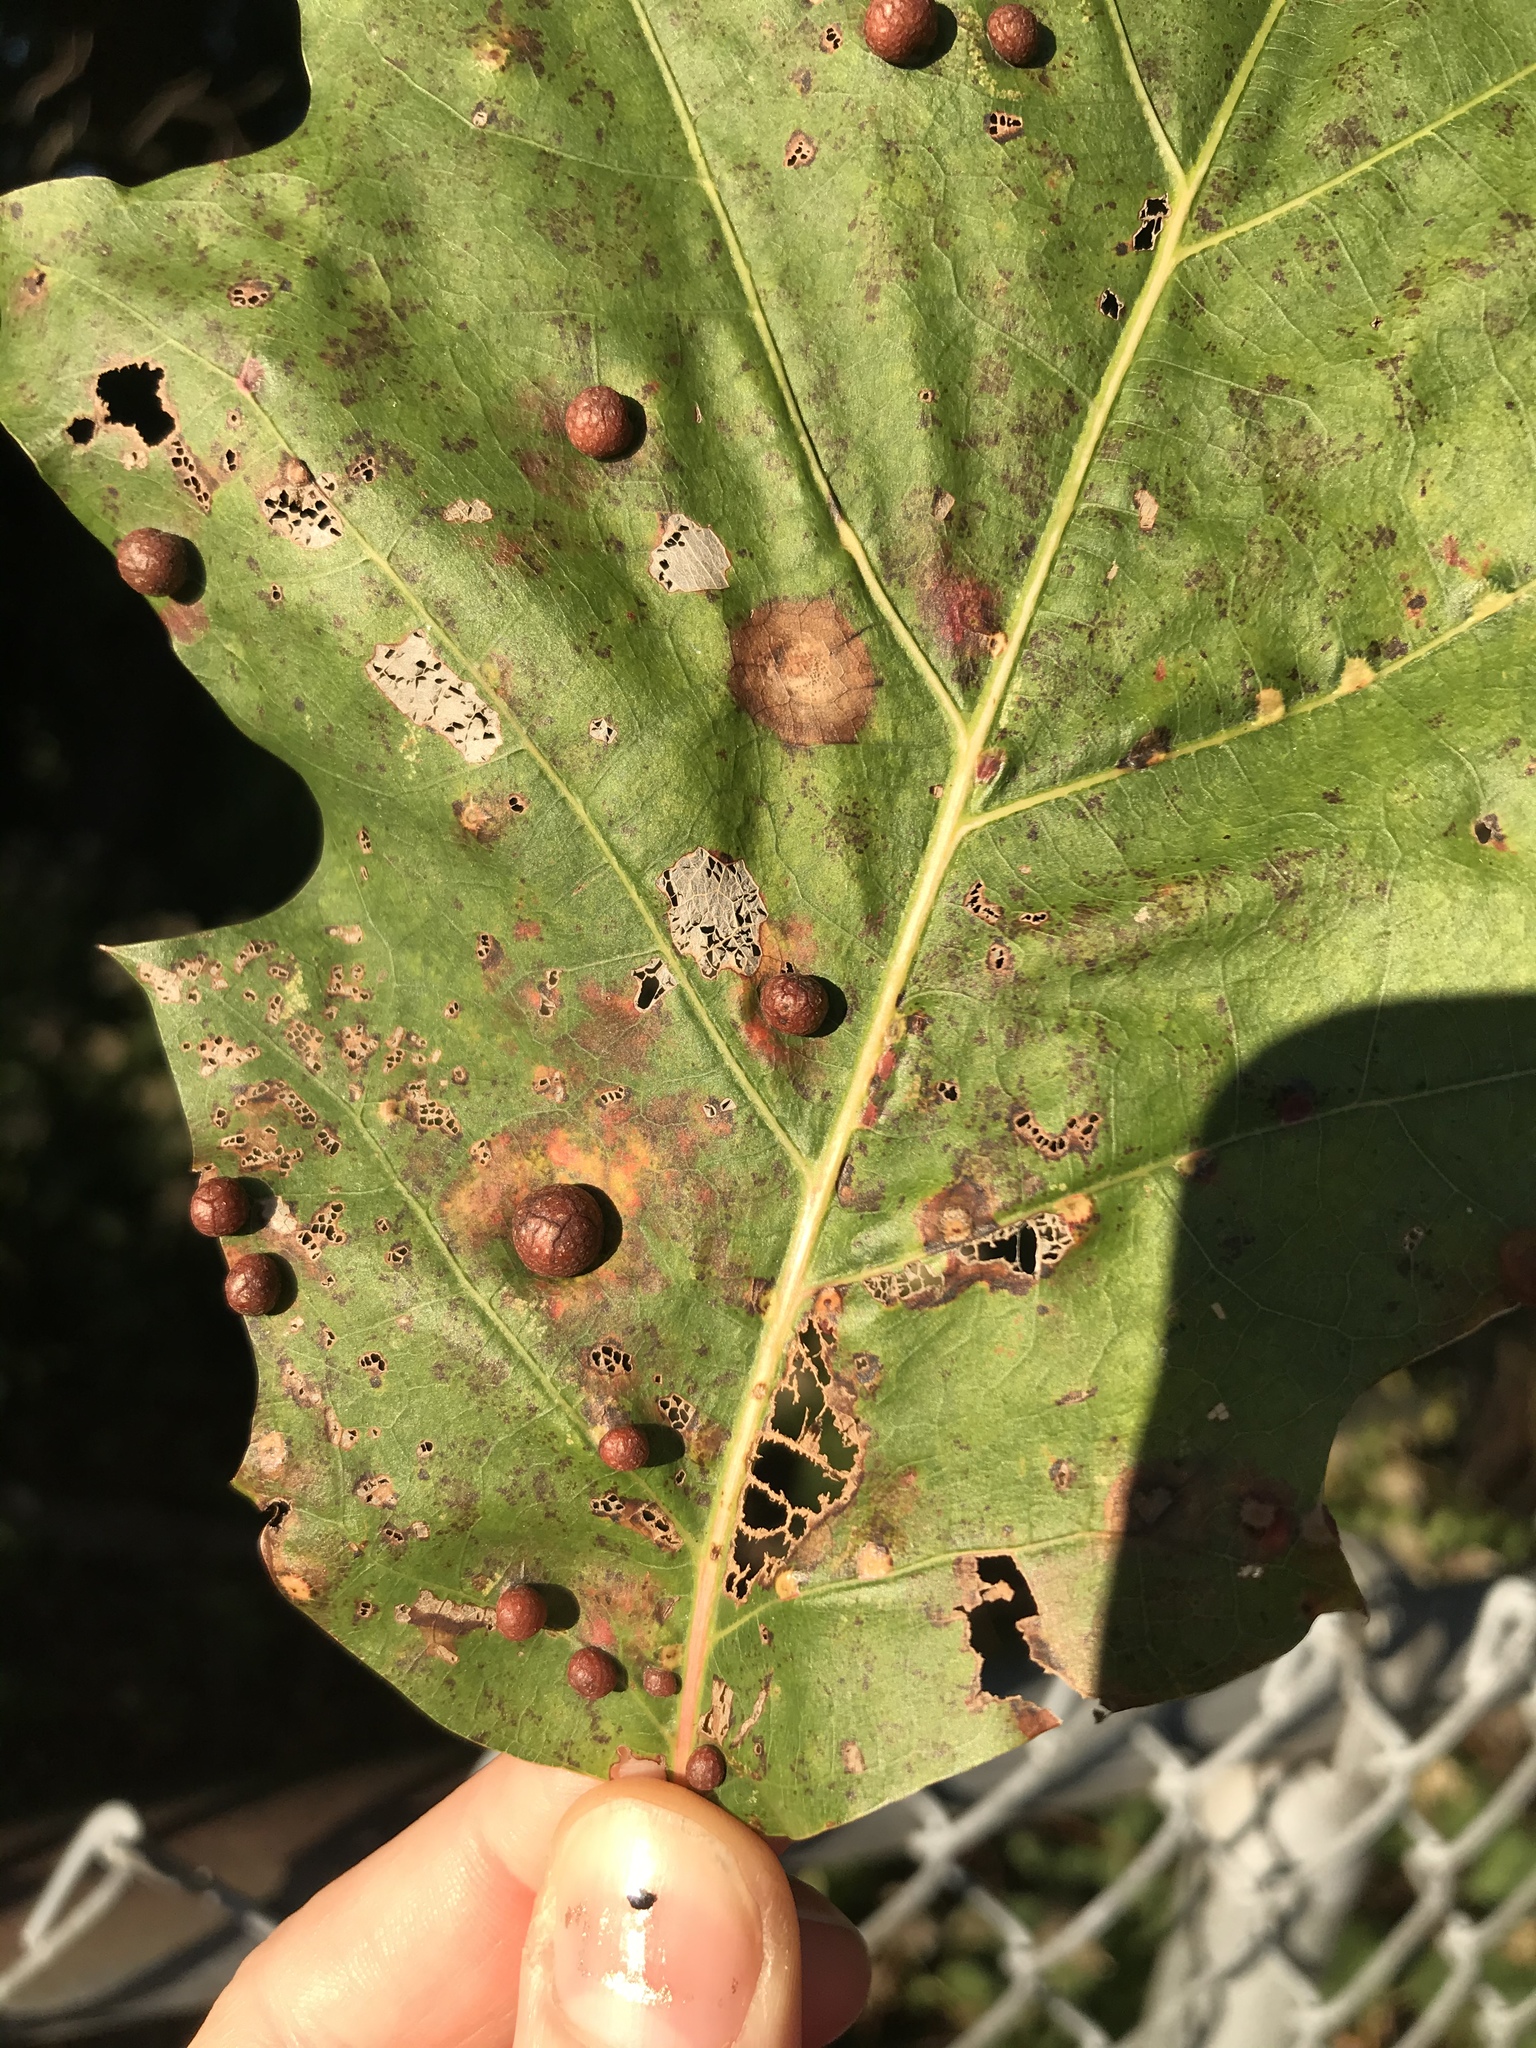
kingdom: Animalia
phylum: Arthropoda
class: Insecta
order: Diptera
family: Cecidomyiidae
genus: Polystepha
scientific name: Polystepha pilulae
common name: Oak leaf gall midge
